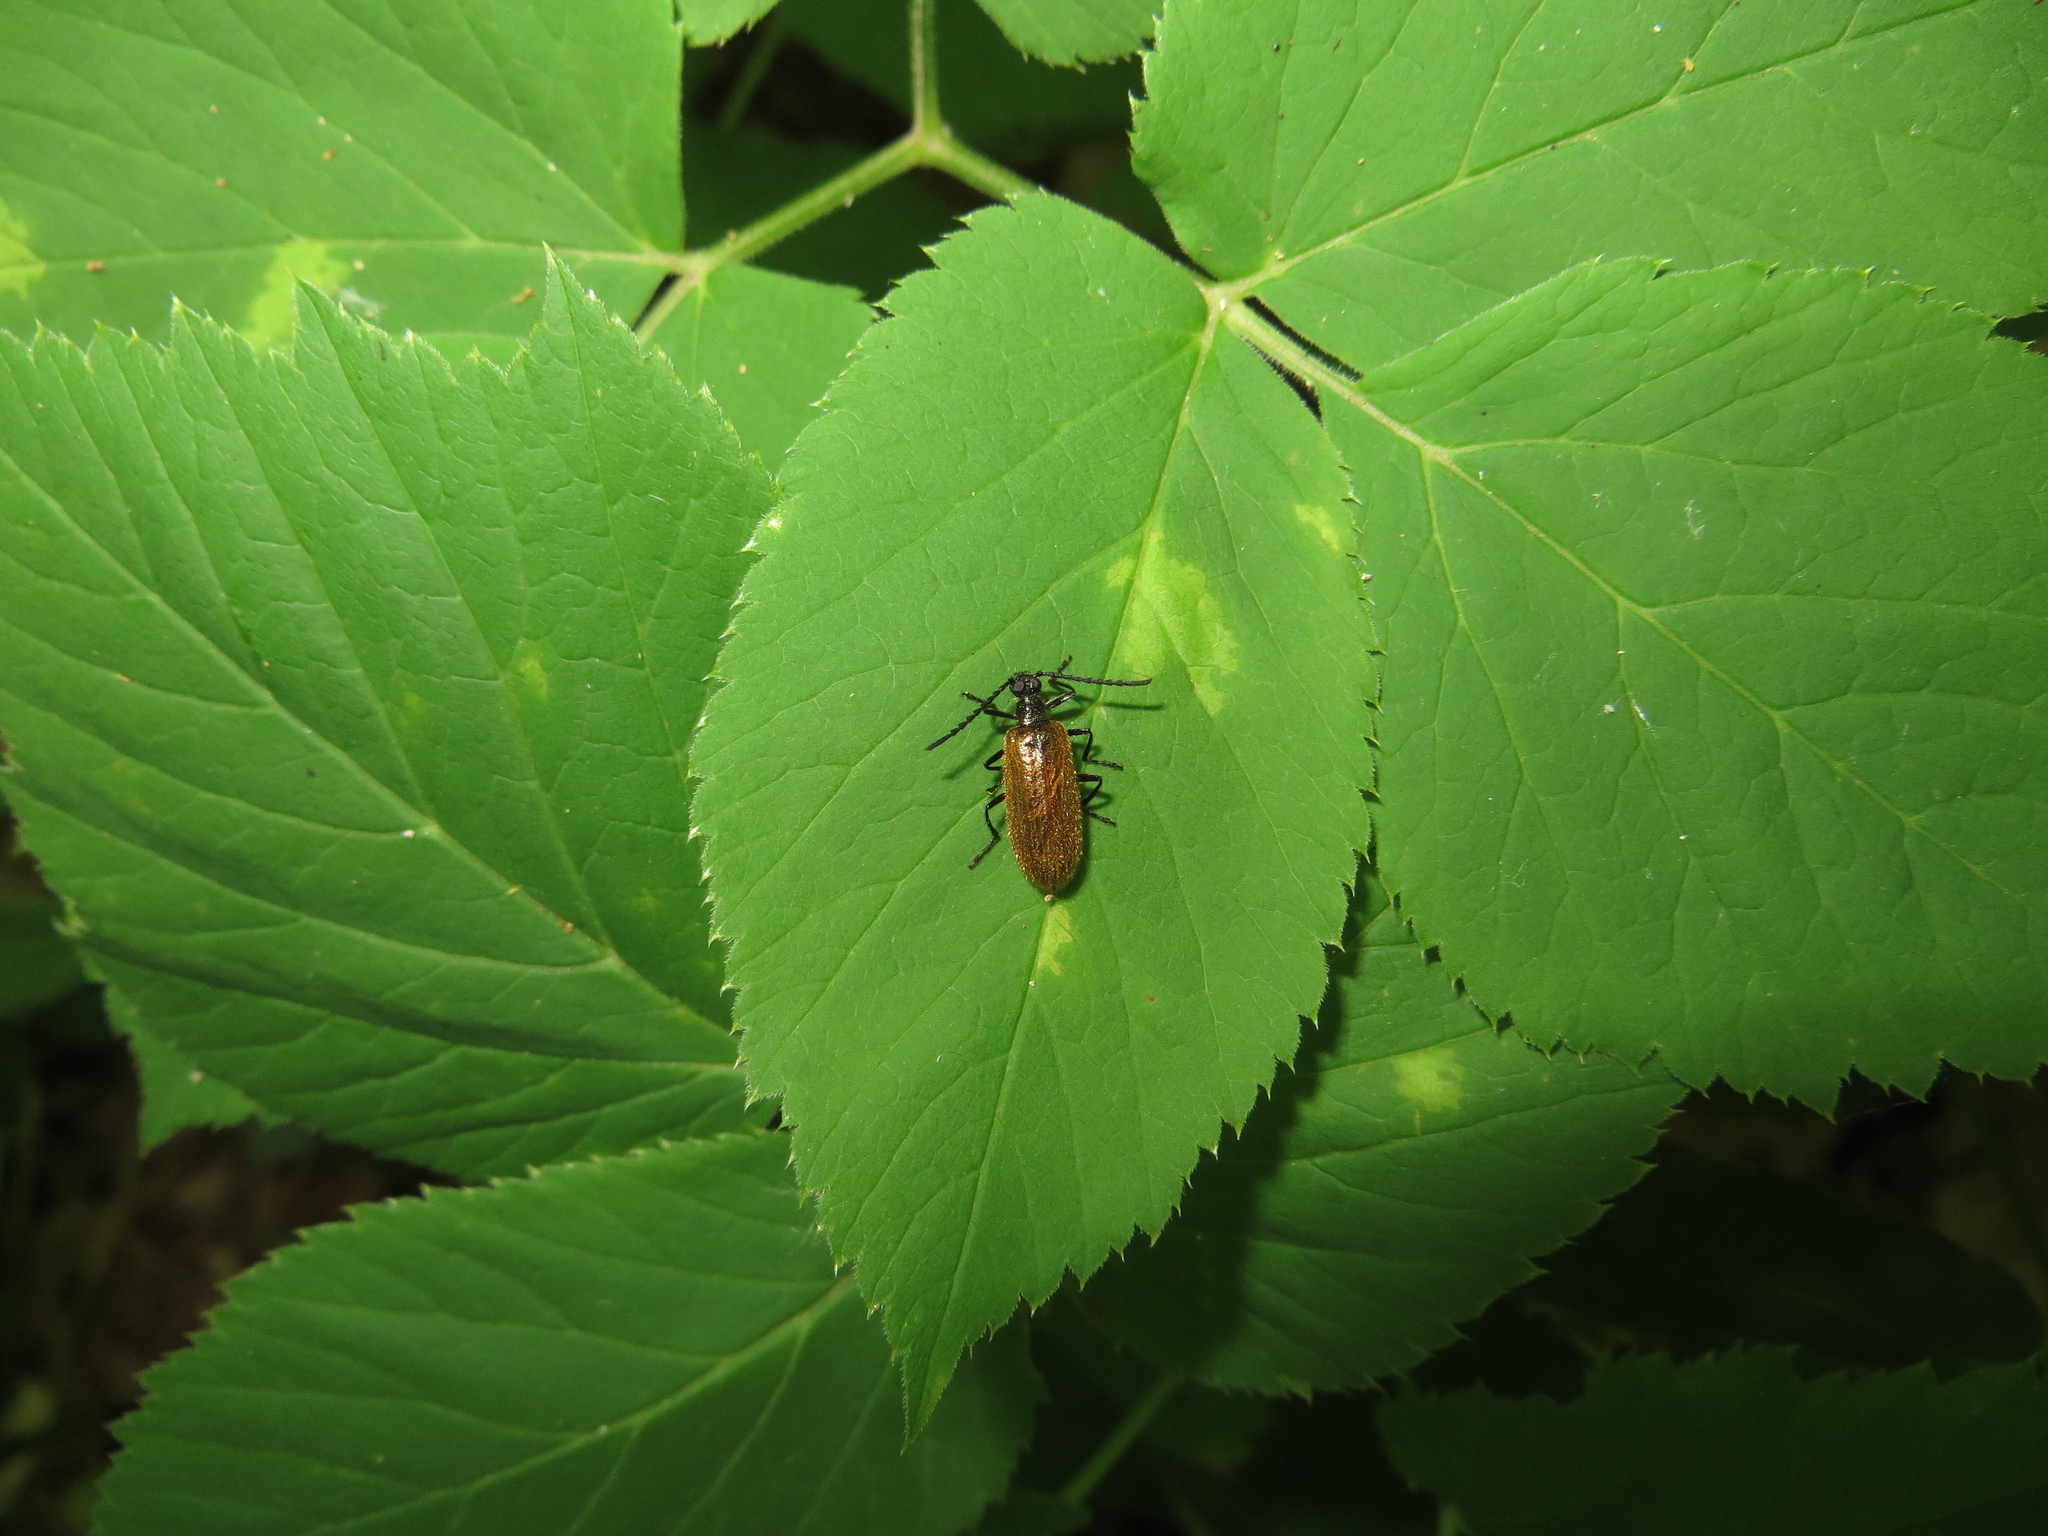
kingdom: Animalia
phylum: Arthropoda
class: Insecta
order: Coleoptera
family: Tenebrionidae
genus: Lagria
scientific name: Lagria hirta
